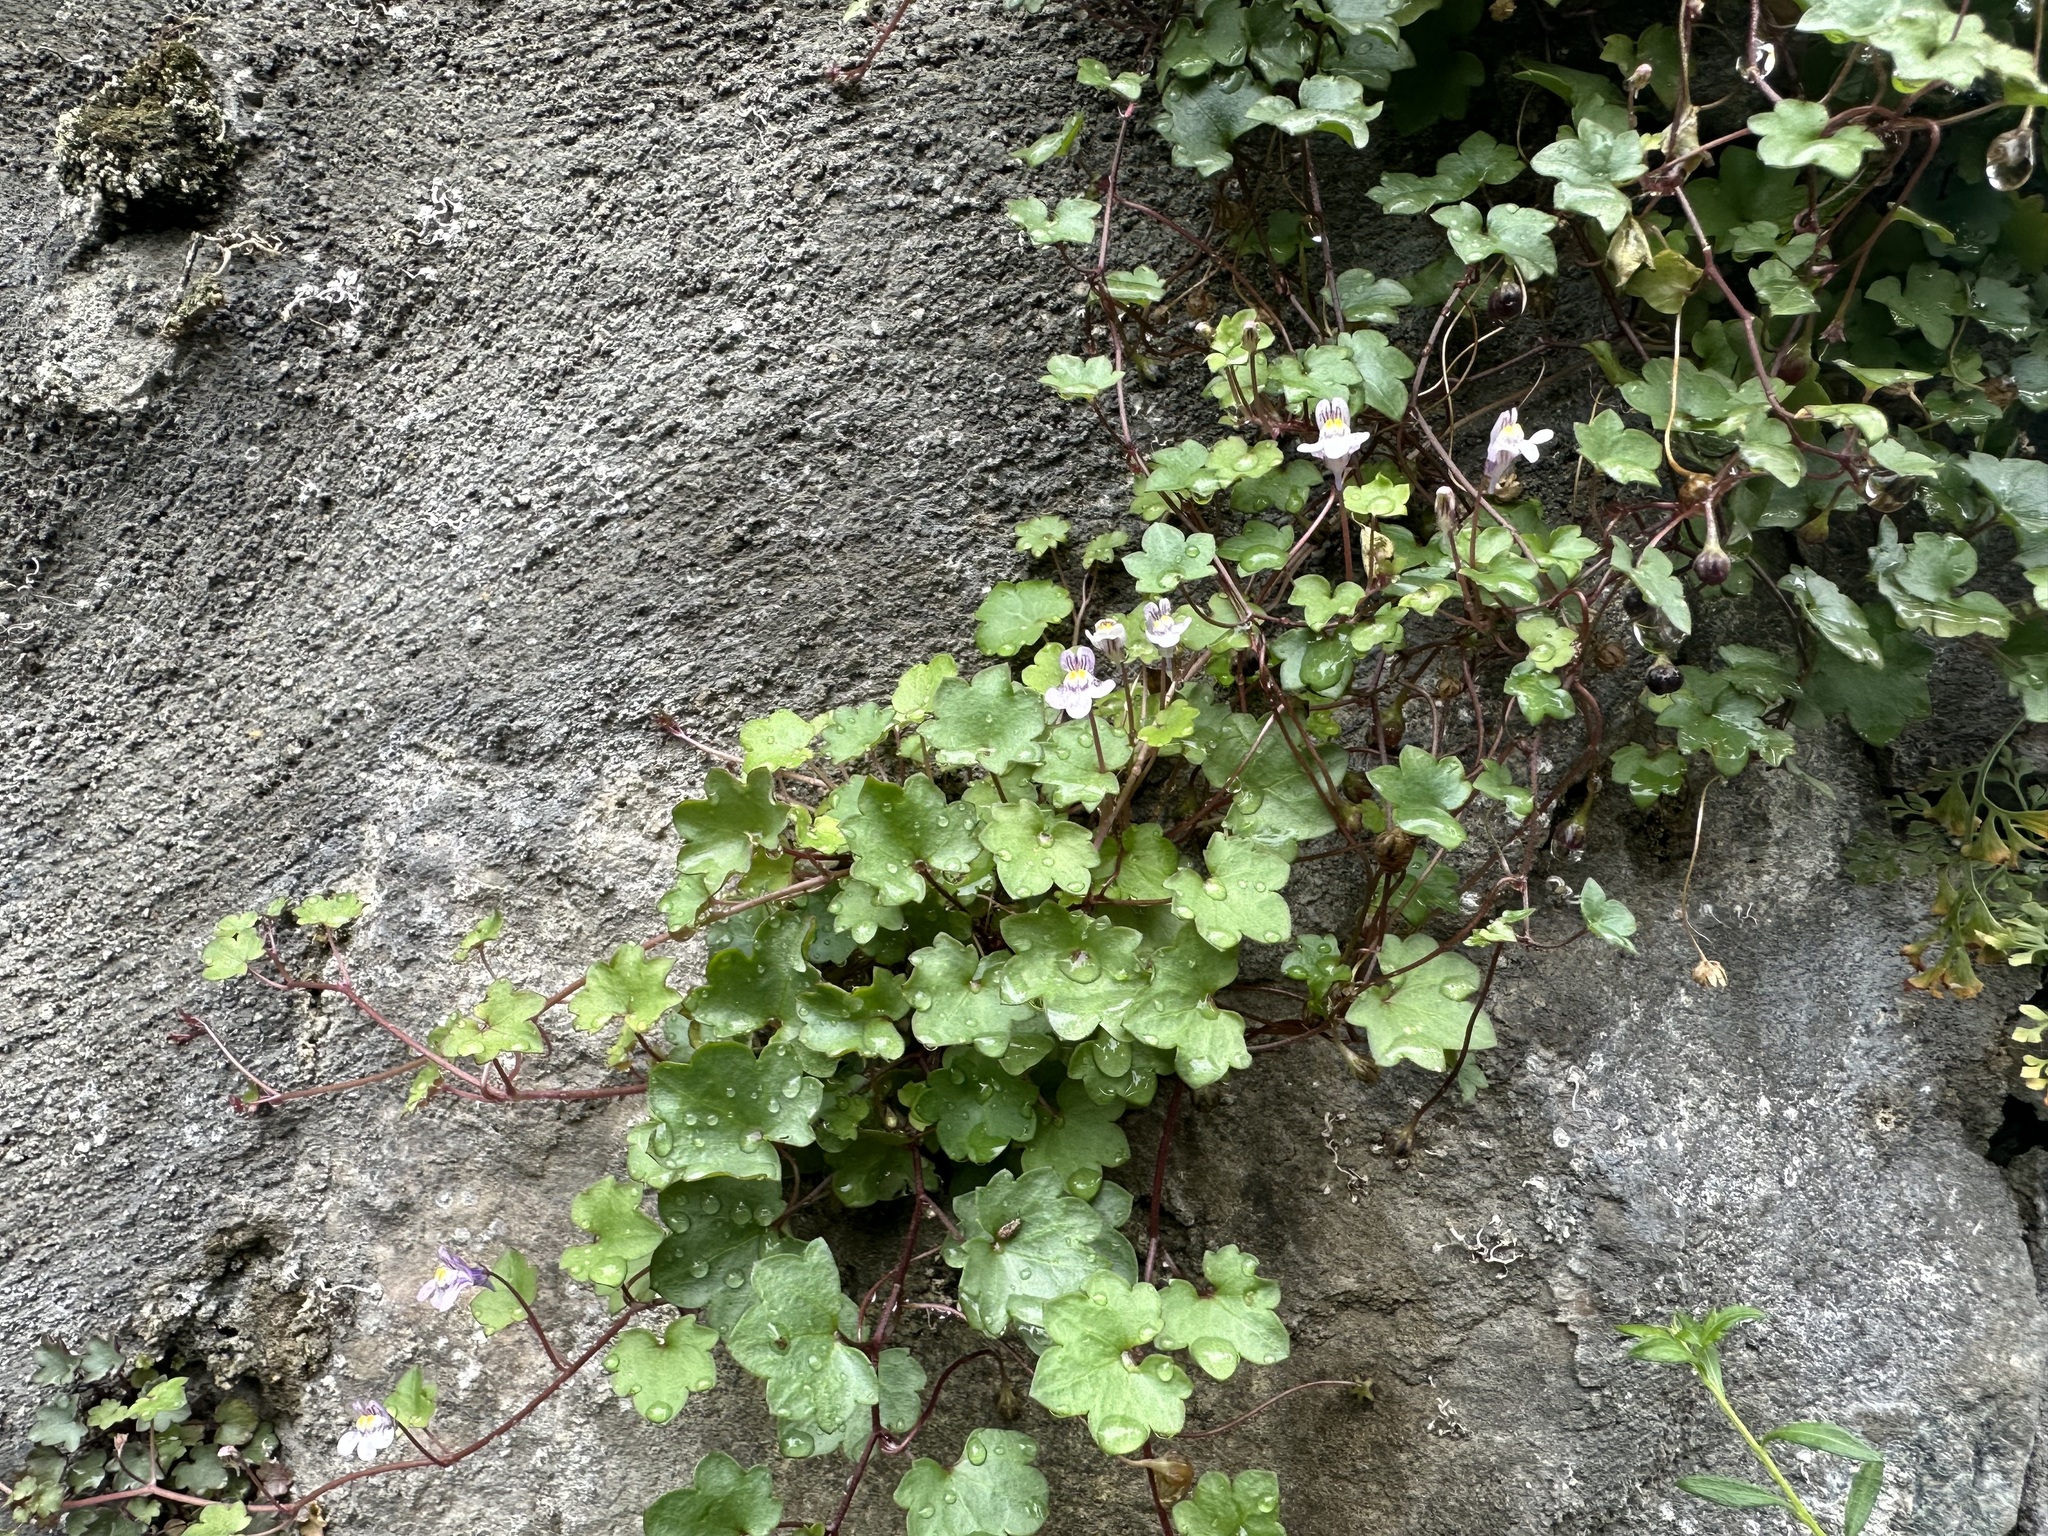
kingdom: Plantae
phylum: Tracheophyta
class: Magnoliopsida
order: Lamiales
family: Plantaginaceae
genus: Cymbalaria
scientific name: Cymbalaria muralis
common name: Ivy-leaved toadflax
